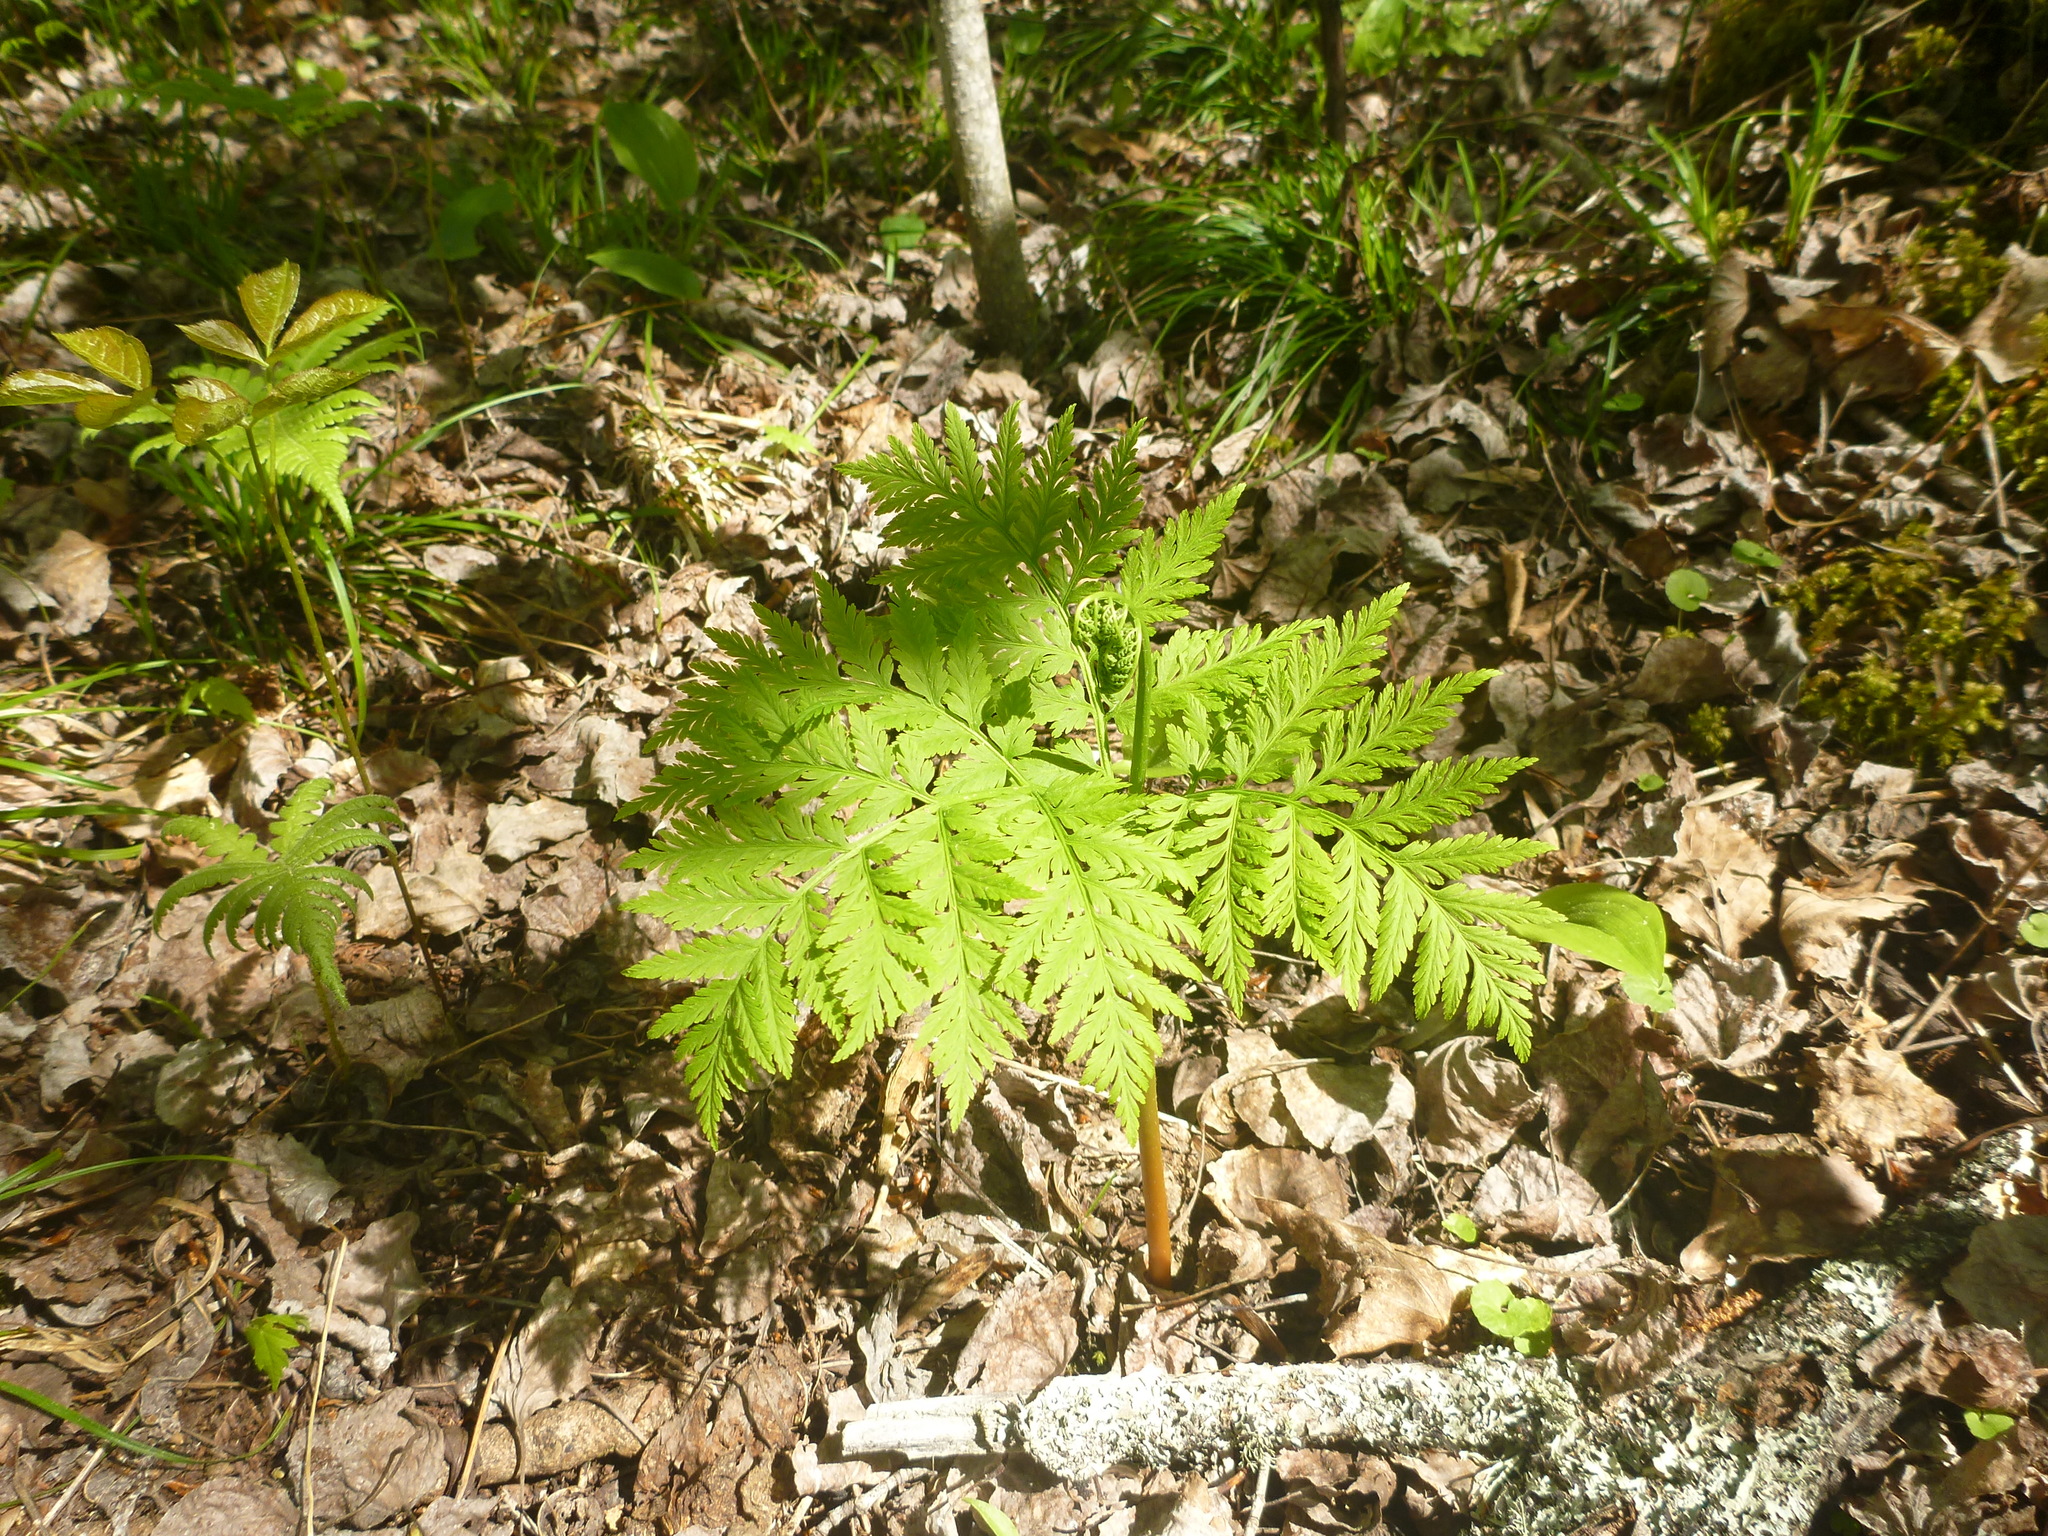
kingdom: Plantae
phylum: Tracheophyta
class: Polypodiopsida
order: Ophioglossales
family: Ophioglossaceae
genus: Botrypus
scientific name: Botrypus virginianus
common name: Common grapefern
